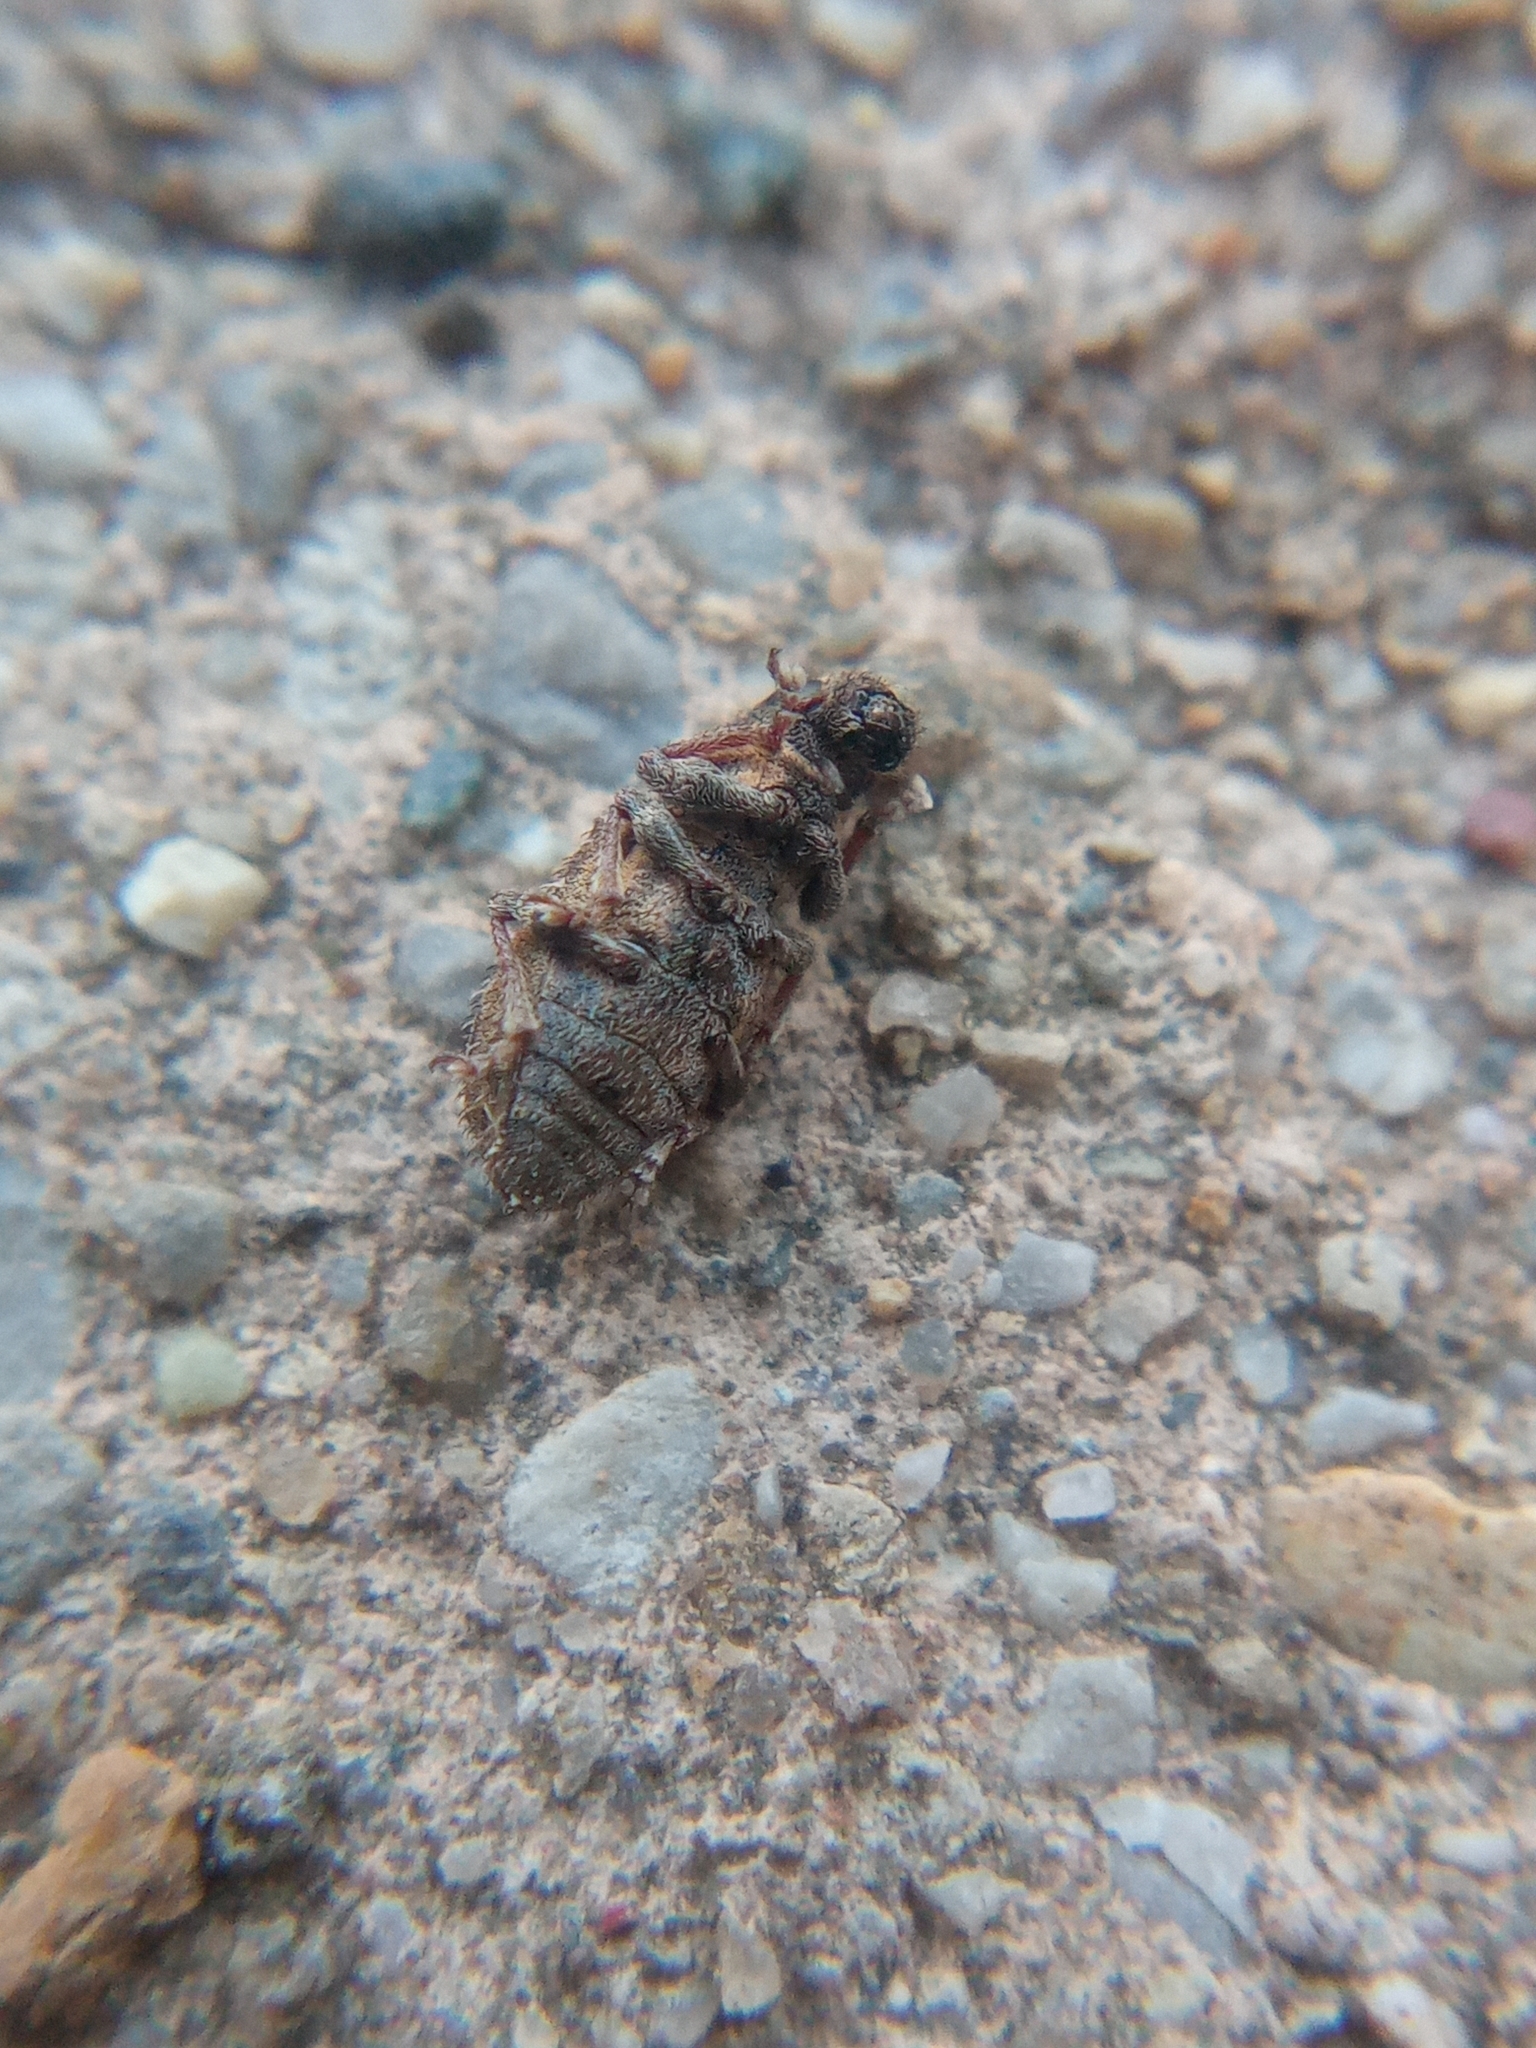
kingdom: Animalia
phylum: Arthropoda
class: Insecta
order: Coleoptera
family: Curculionidae
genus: Sitona
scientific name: Sitona hispidulus
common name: Clover weevil
